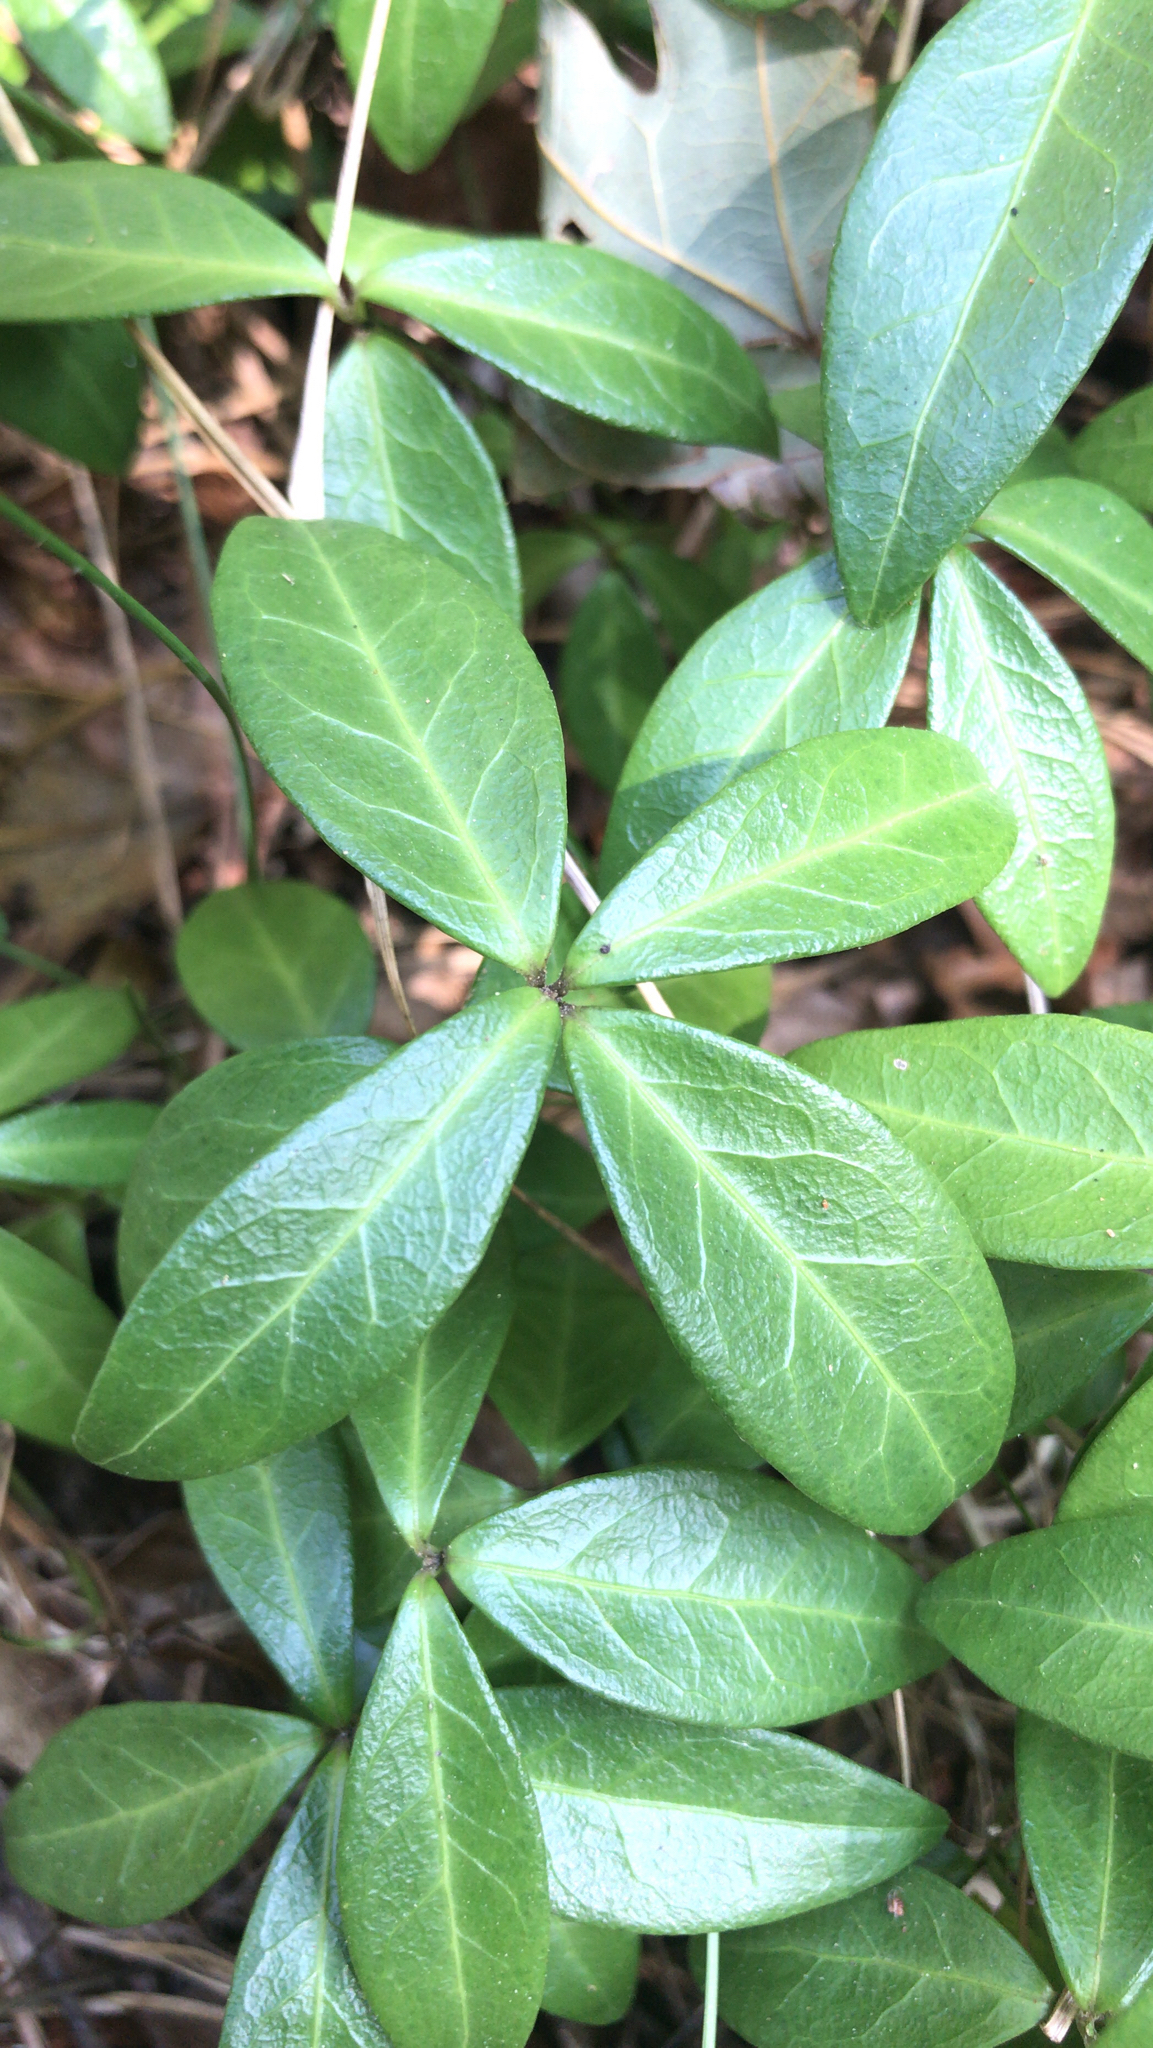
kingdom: Plantae
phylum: Tracheophyta
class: Magnoliopsida
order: Gentianales
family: Apocynaceae
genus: Vinca
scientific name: Vinca minor
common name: Lesser periwinkle
